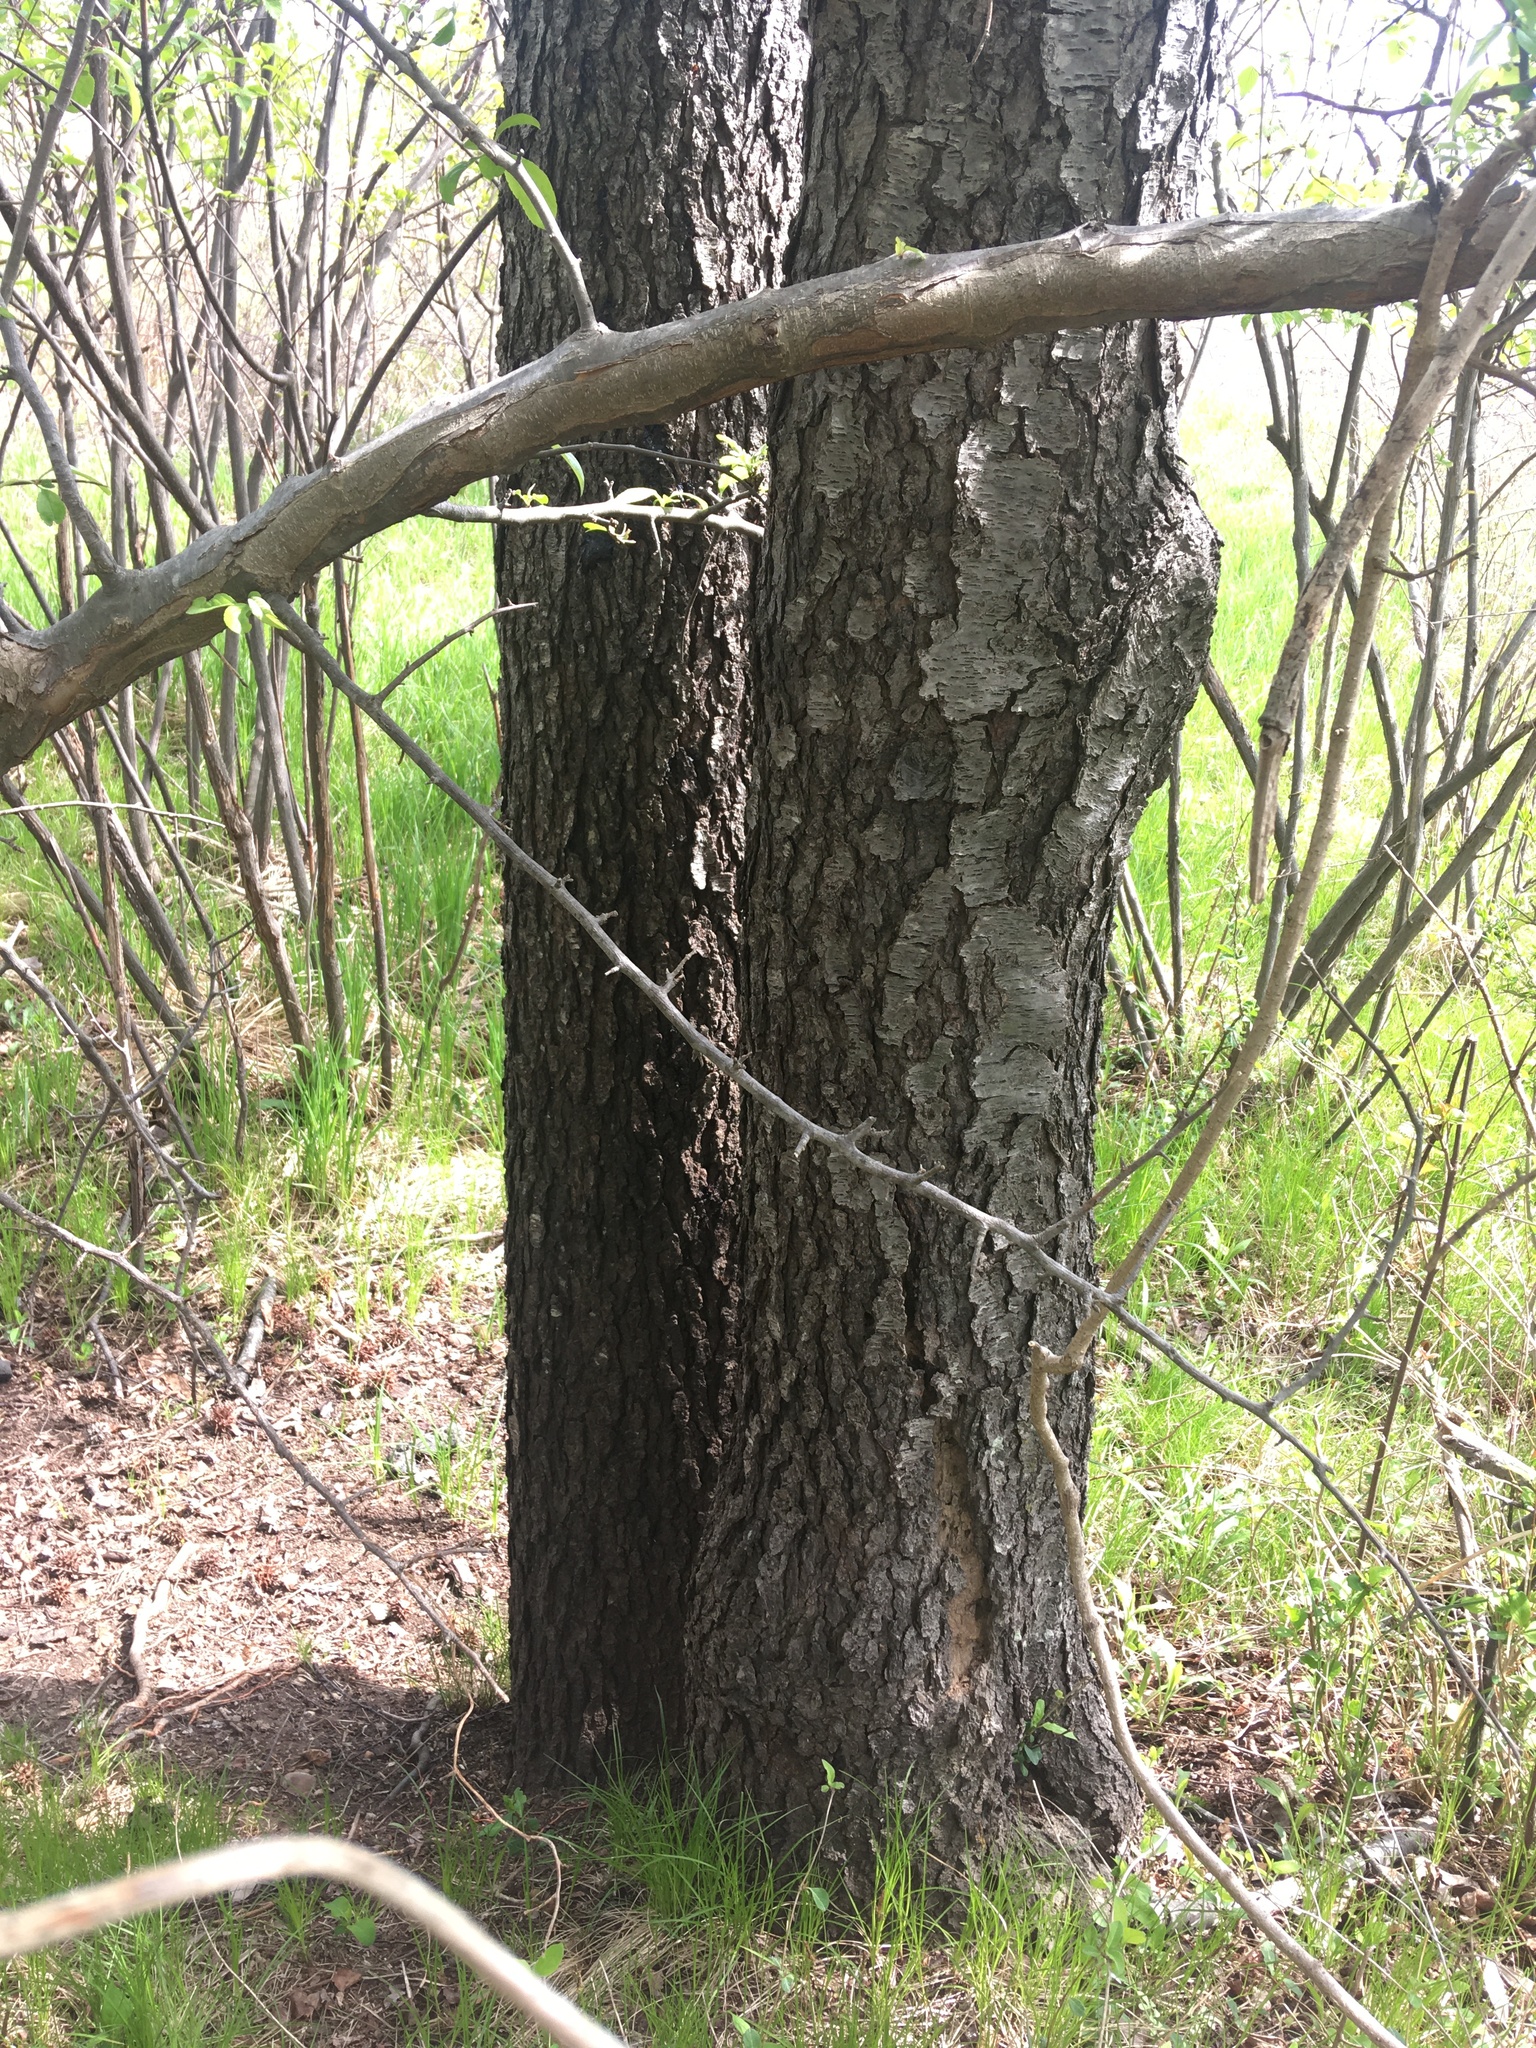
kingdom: Plantae
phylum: Tracheophyta
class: Magnoliopsida
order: Rosales
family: Rosaceae
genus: Prunus
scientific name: Prunus serotina
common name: Black cherry
